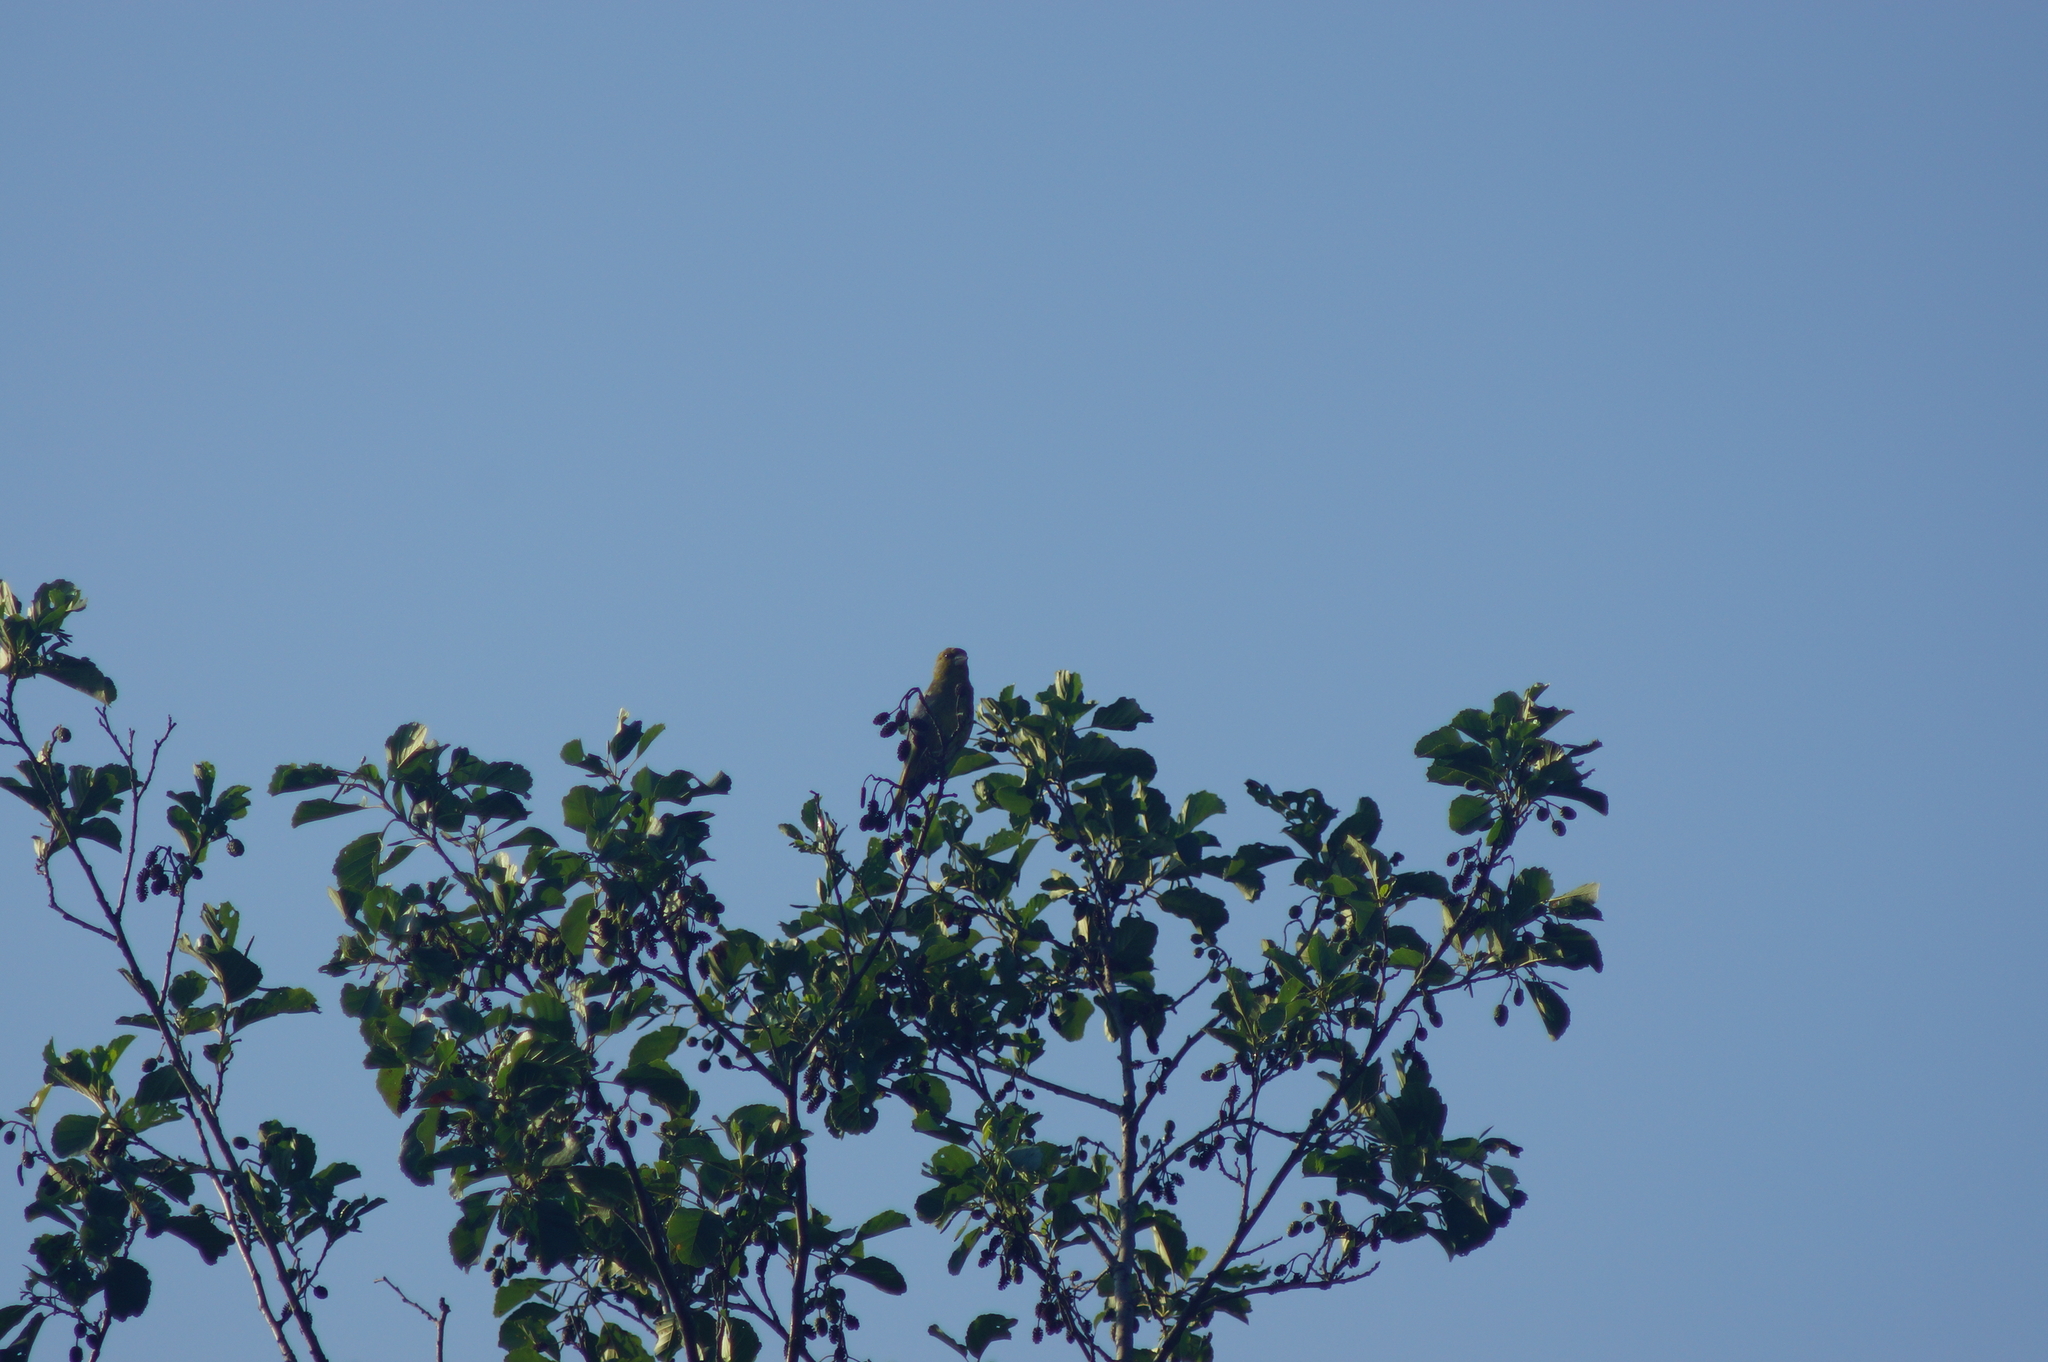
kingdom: Plantae
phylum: Tracheophyta
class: Liliopsida
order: Poales
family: Poaceae
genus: Chloris
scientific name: Chloris chloris
